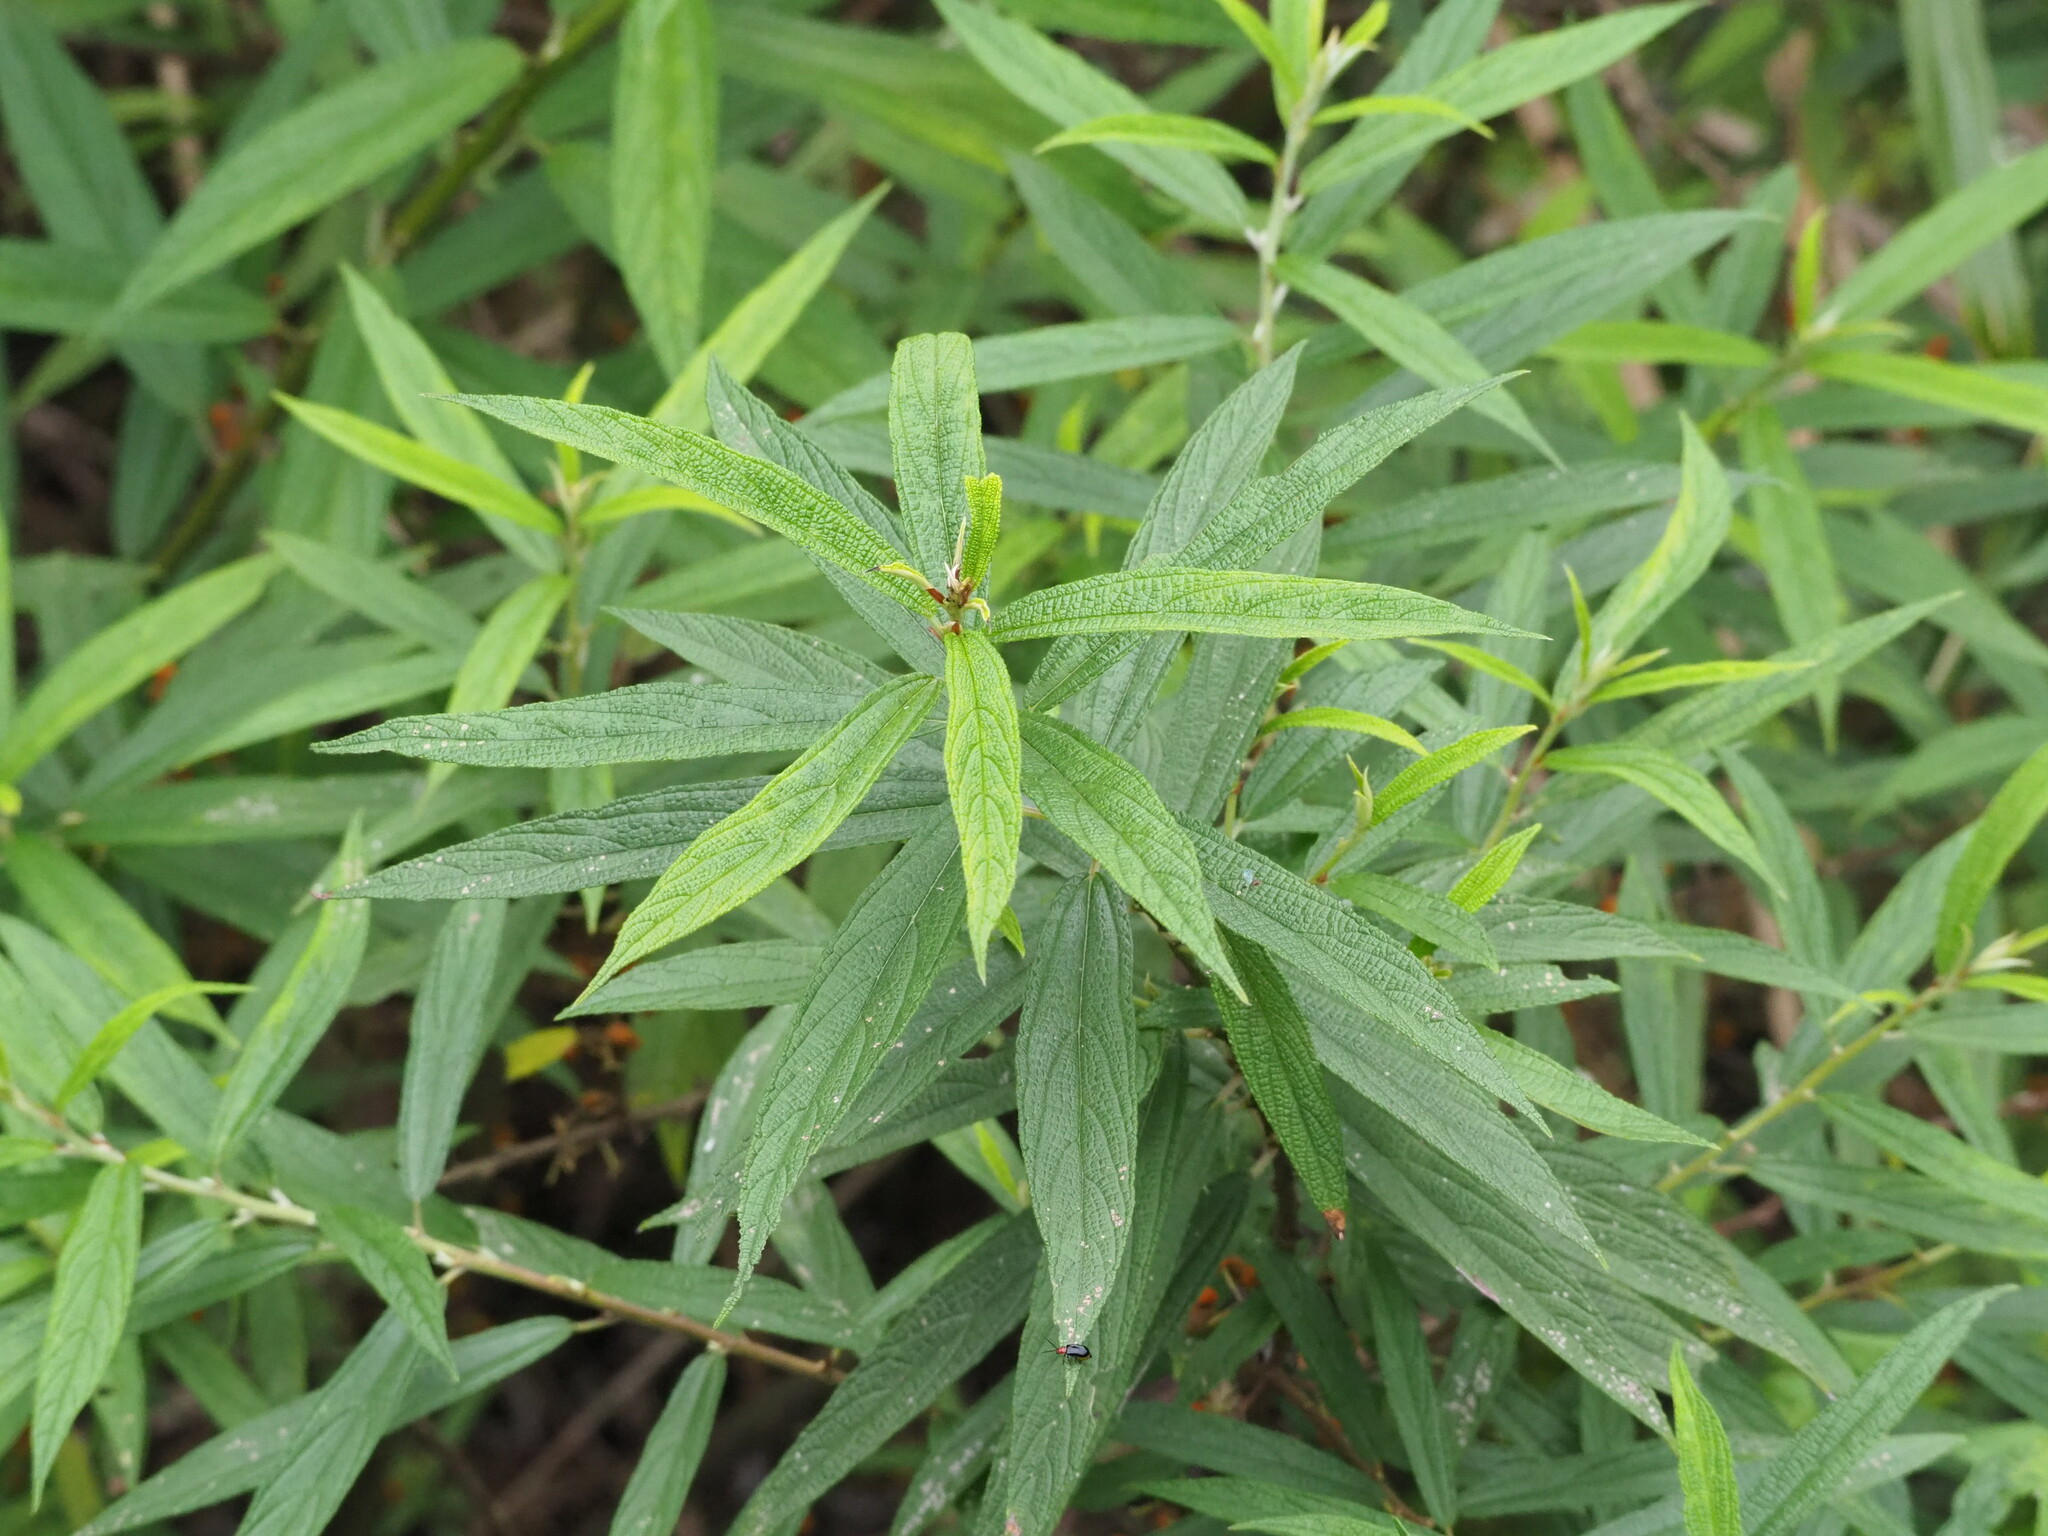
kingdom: Plantae
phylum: Tracheophyta
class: Magnoliopsida
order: Rosales
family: Urticaceae
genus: Boehmeria
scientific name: Boehmeria densiflora
